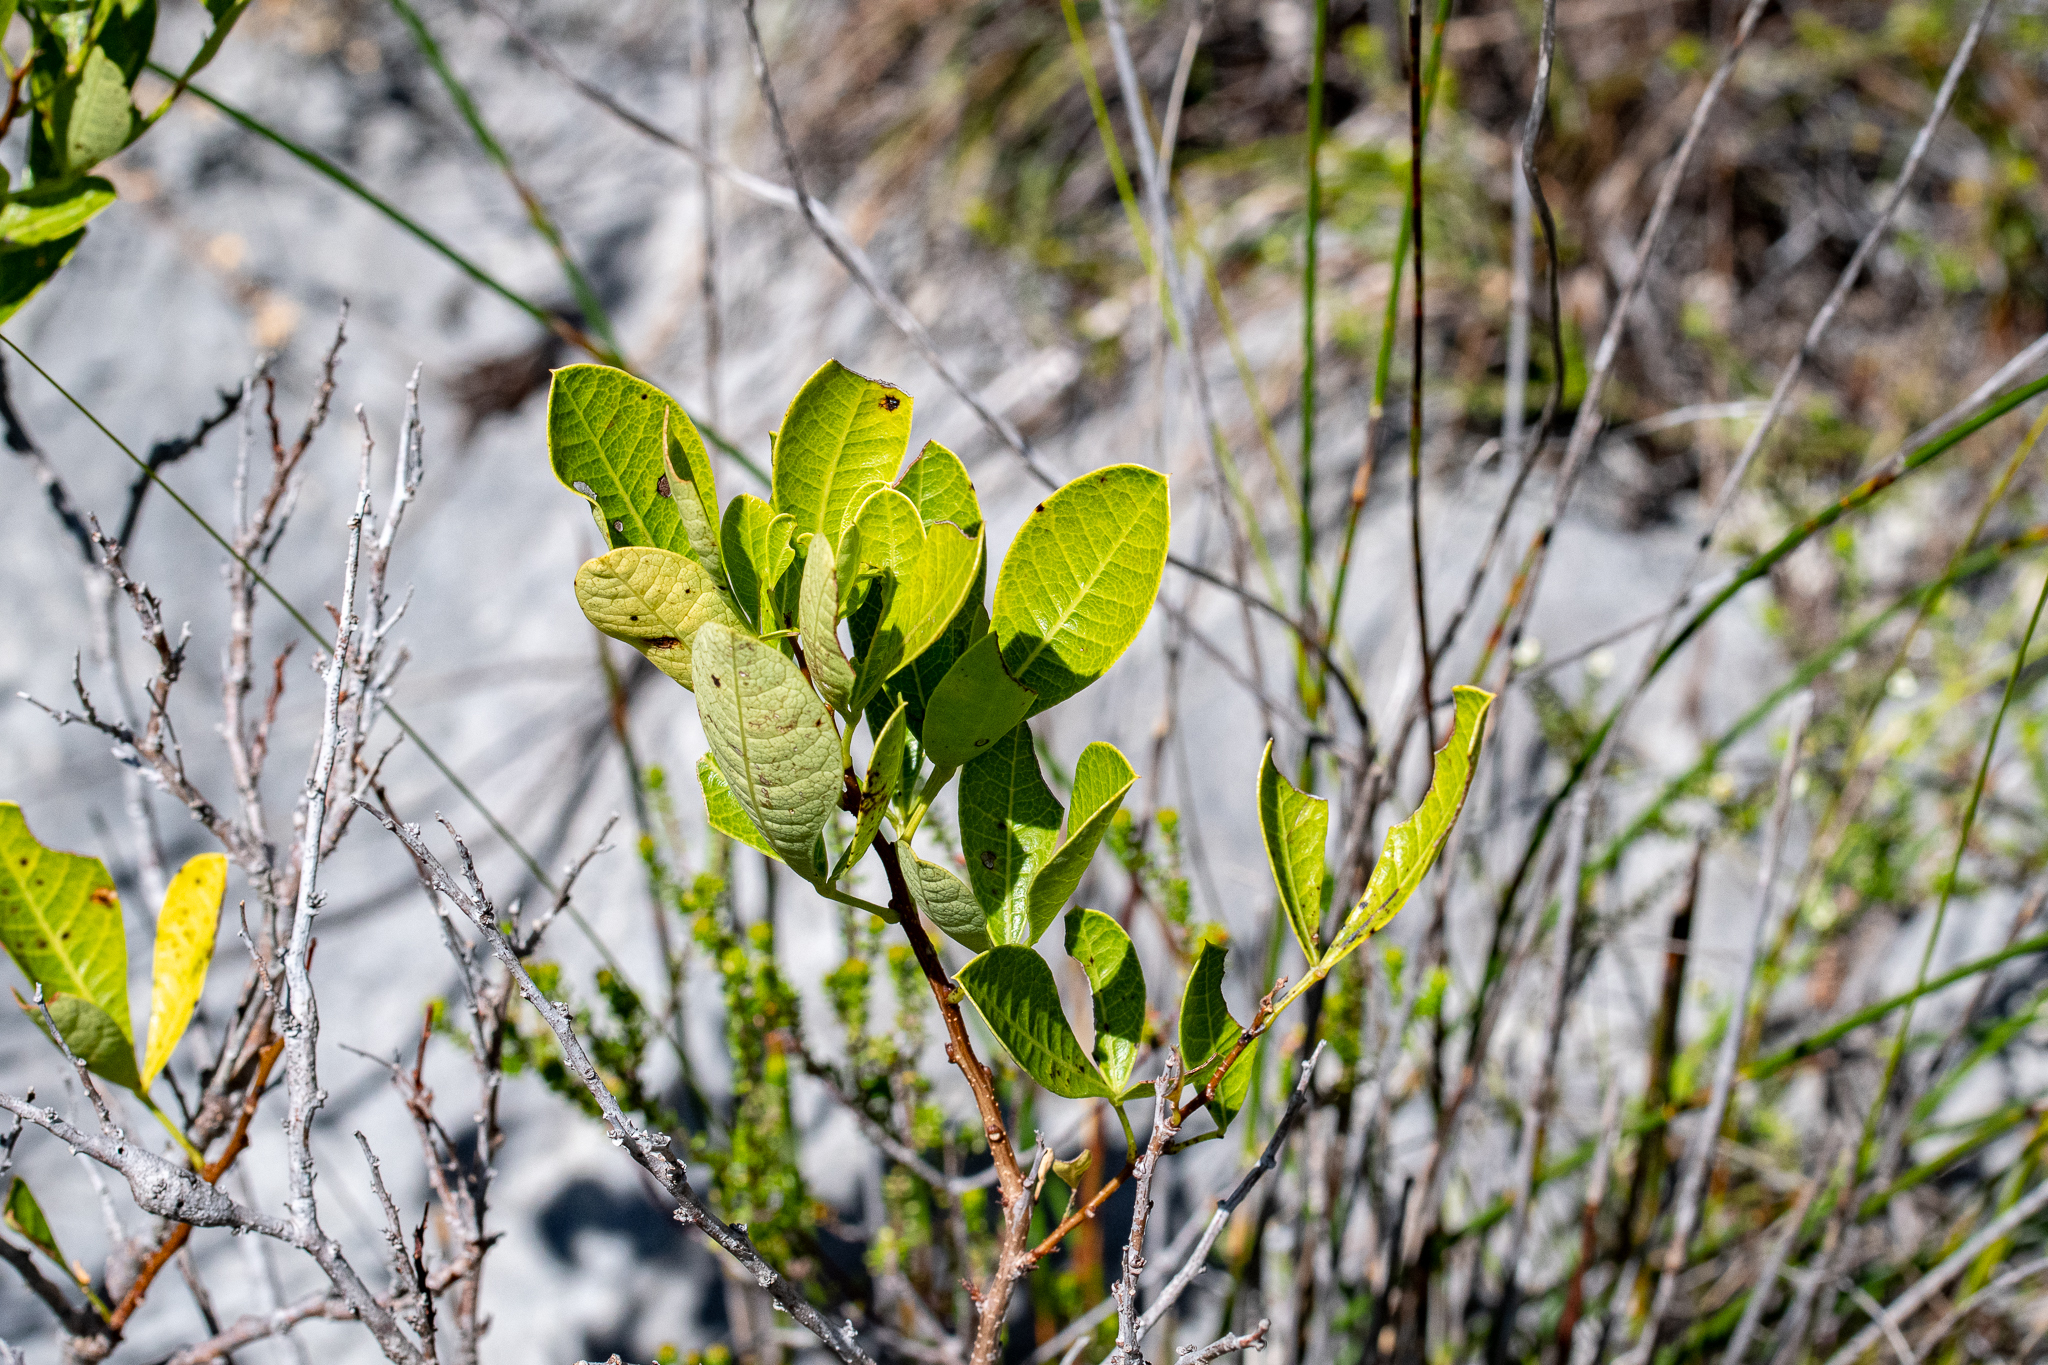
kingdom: Plantae
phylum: Tracheophyta
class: Magnoliopsida
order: Sapindales
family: Anacardiaceae
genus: Searsia
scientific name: Searsia laevigata
